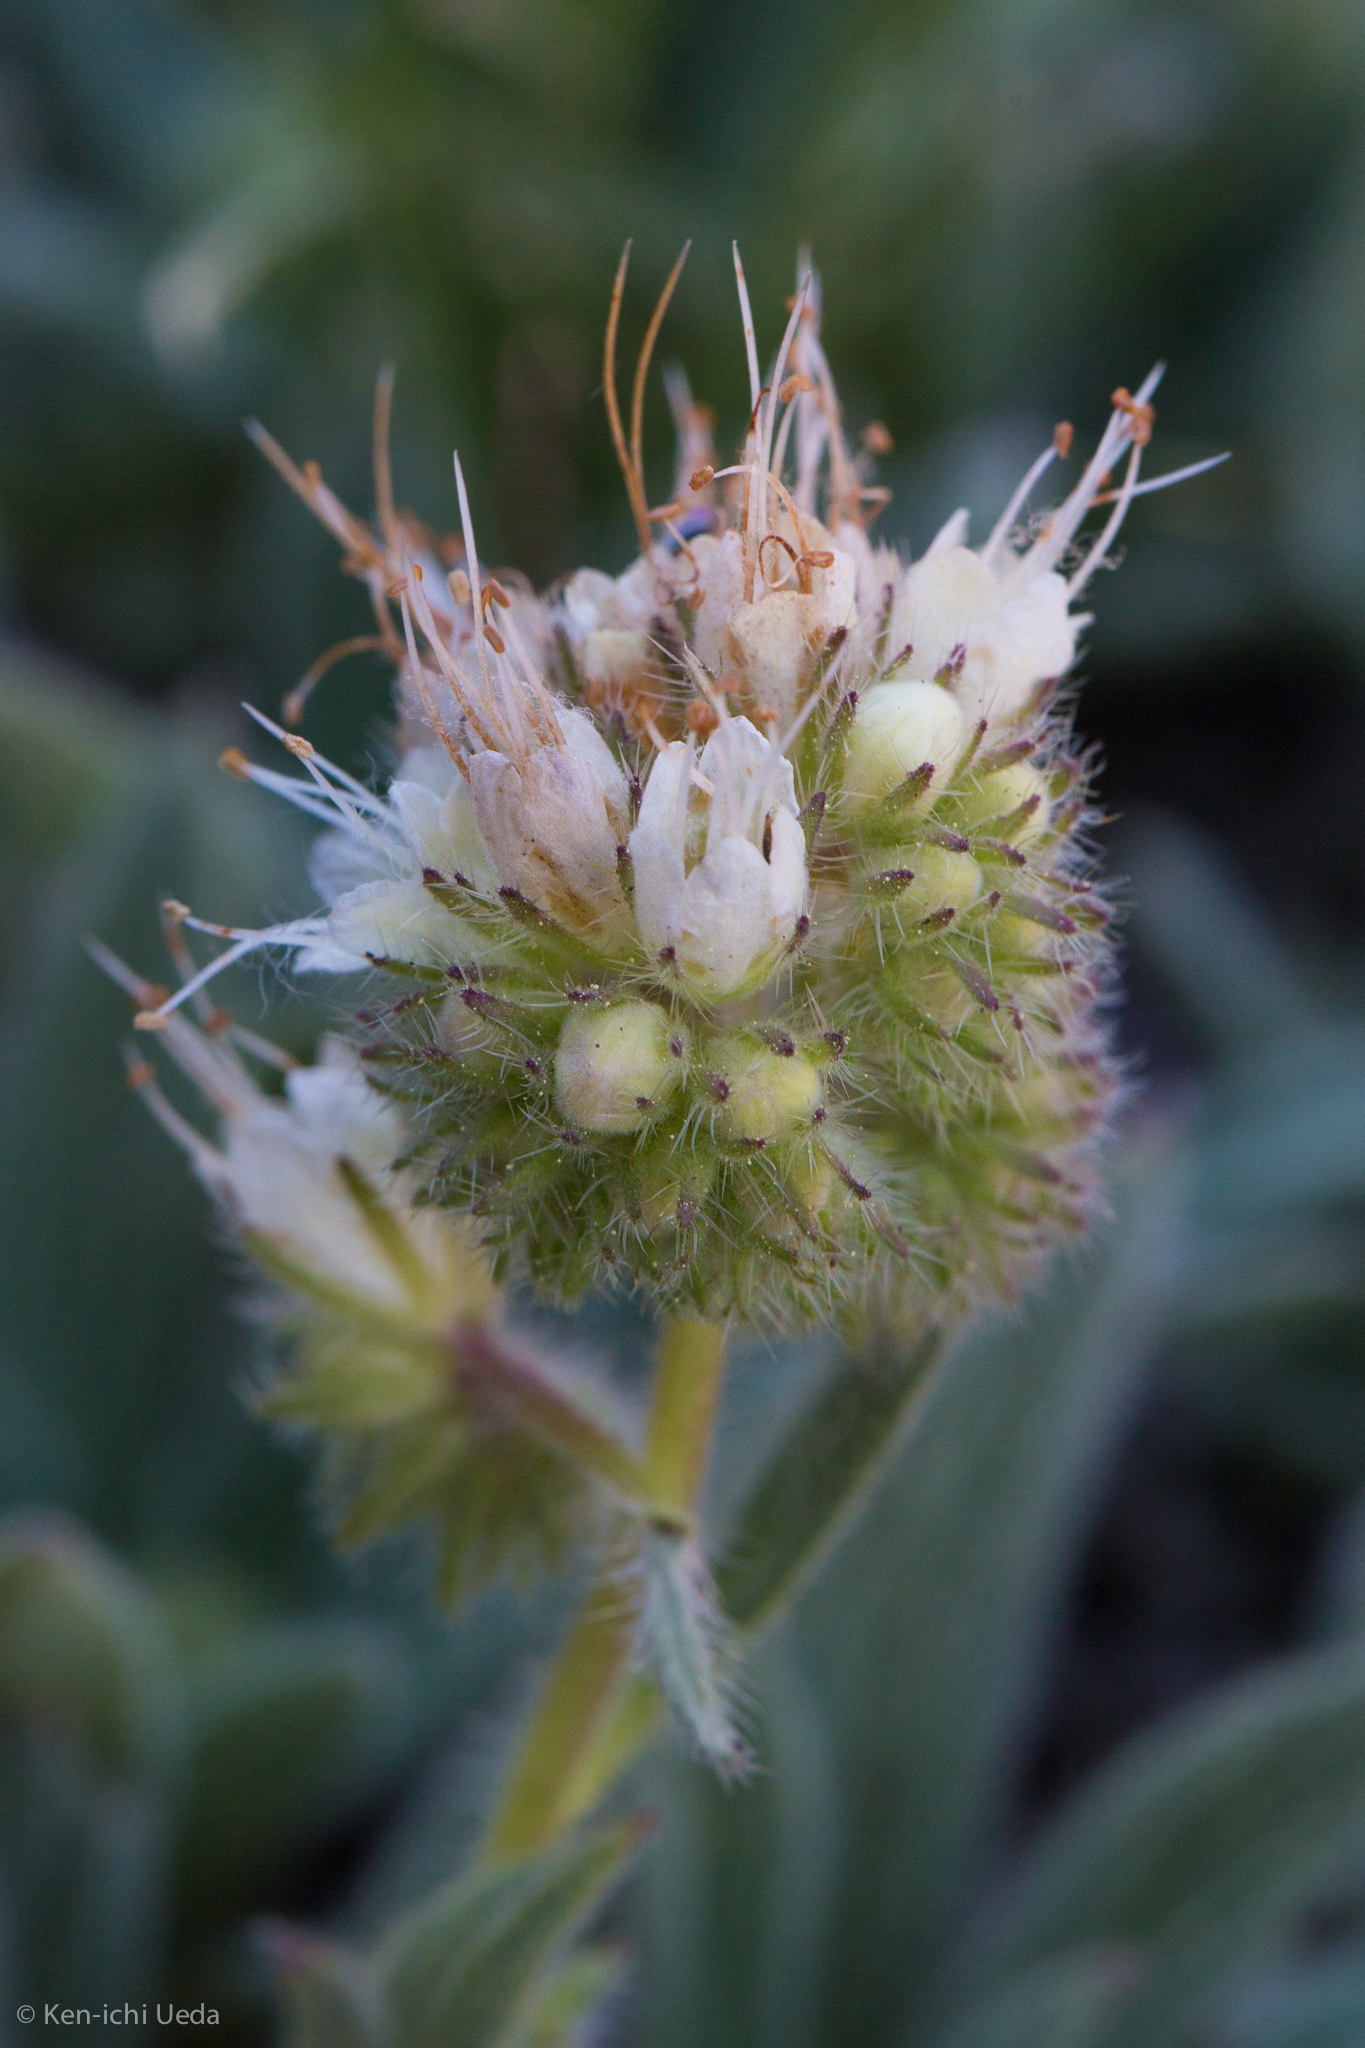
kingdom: Plantae
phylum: Tracheophyta
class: Magnoliopsida
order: Boraginales
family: Hydrophyllaceae
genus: Phacelia
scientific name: Phacelia hastata
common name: Silver-leaved phacelia
